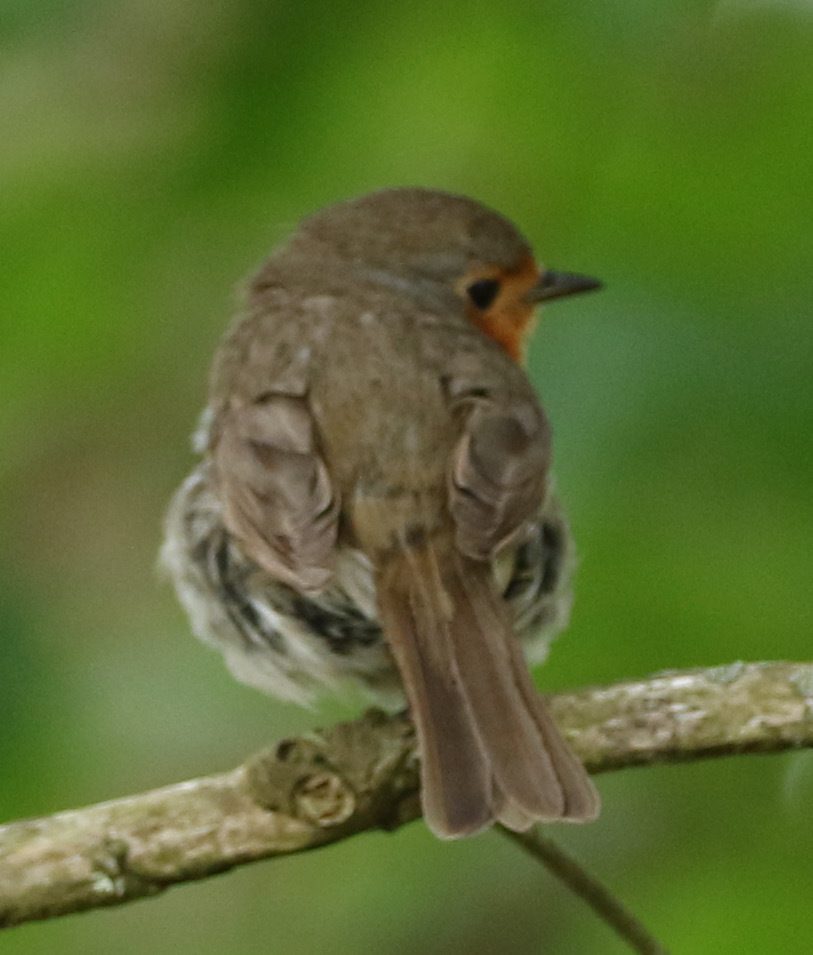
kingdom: Animalia
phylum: Chordata
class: Aves
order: Passeriformes
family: Muscicapidae
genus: Erithacus
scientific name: Erithacus rubecula
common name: European robin
